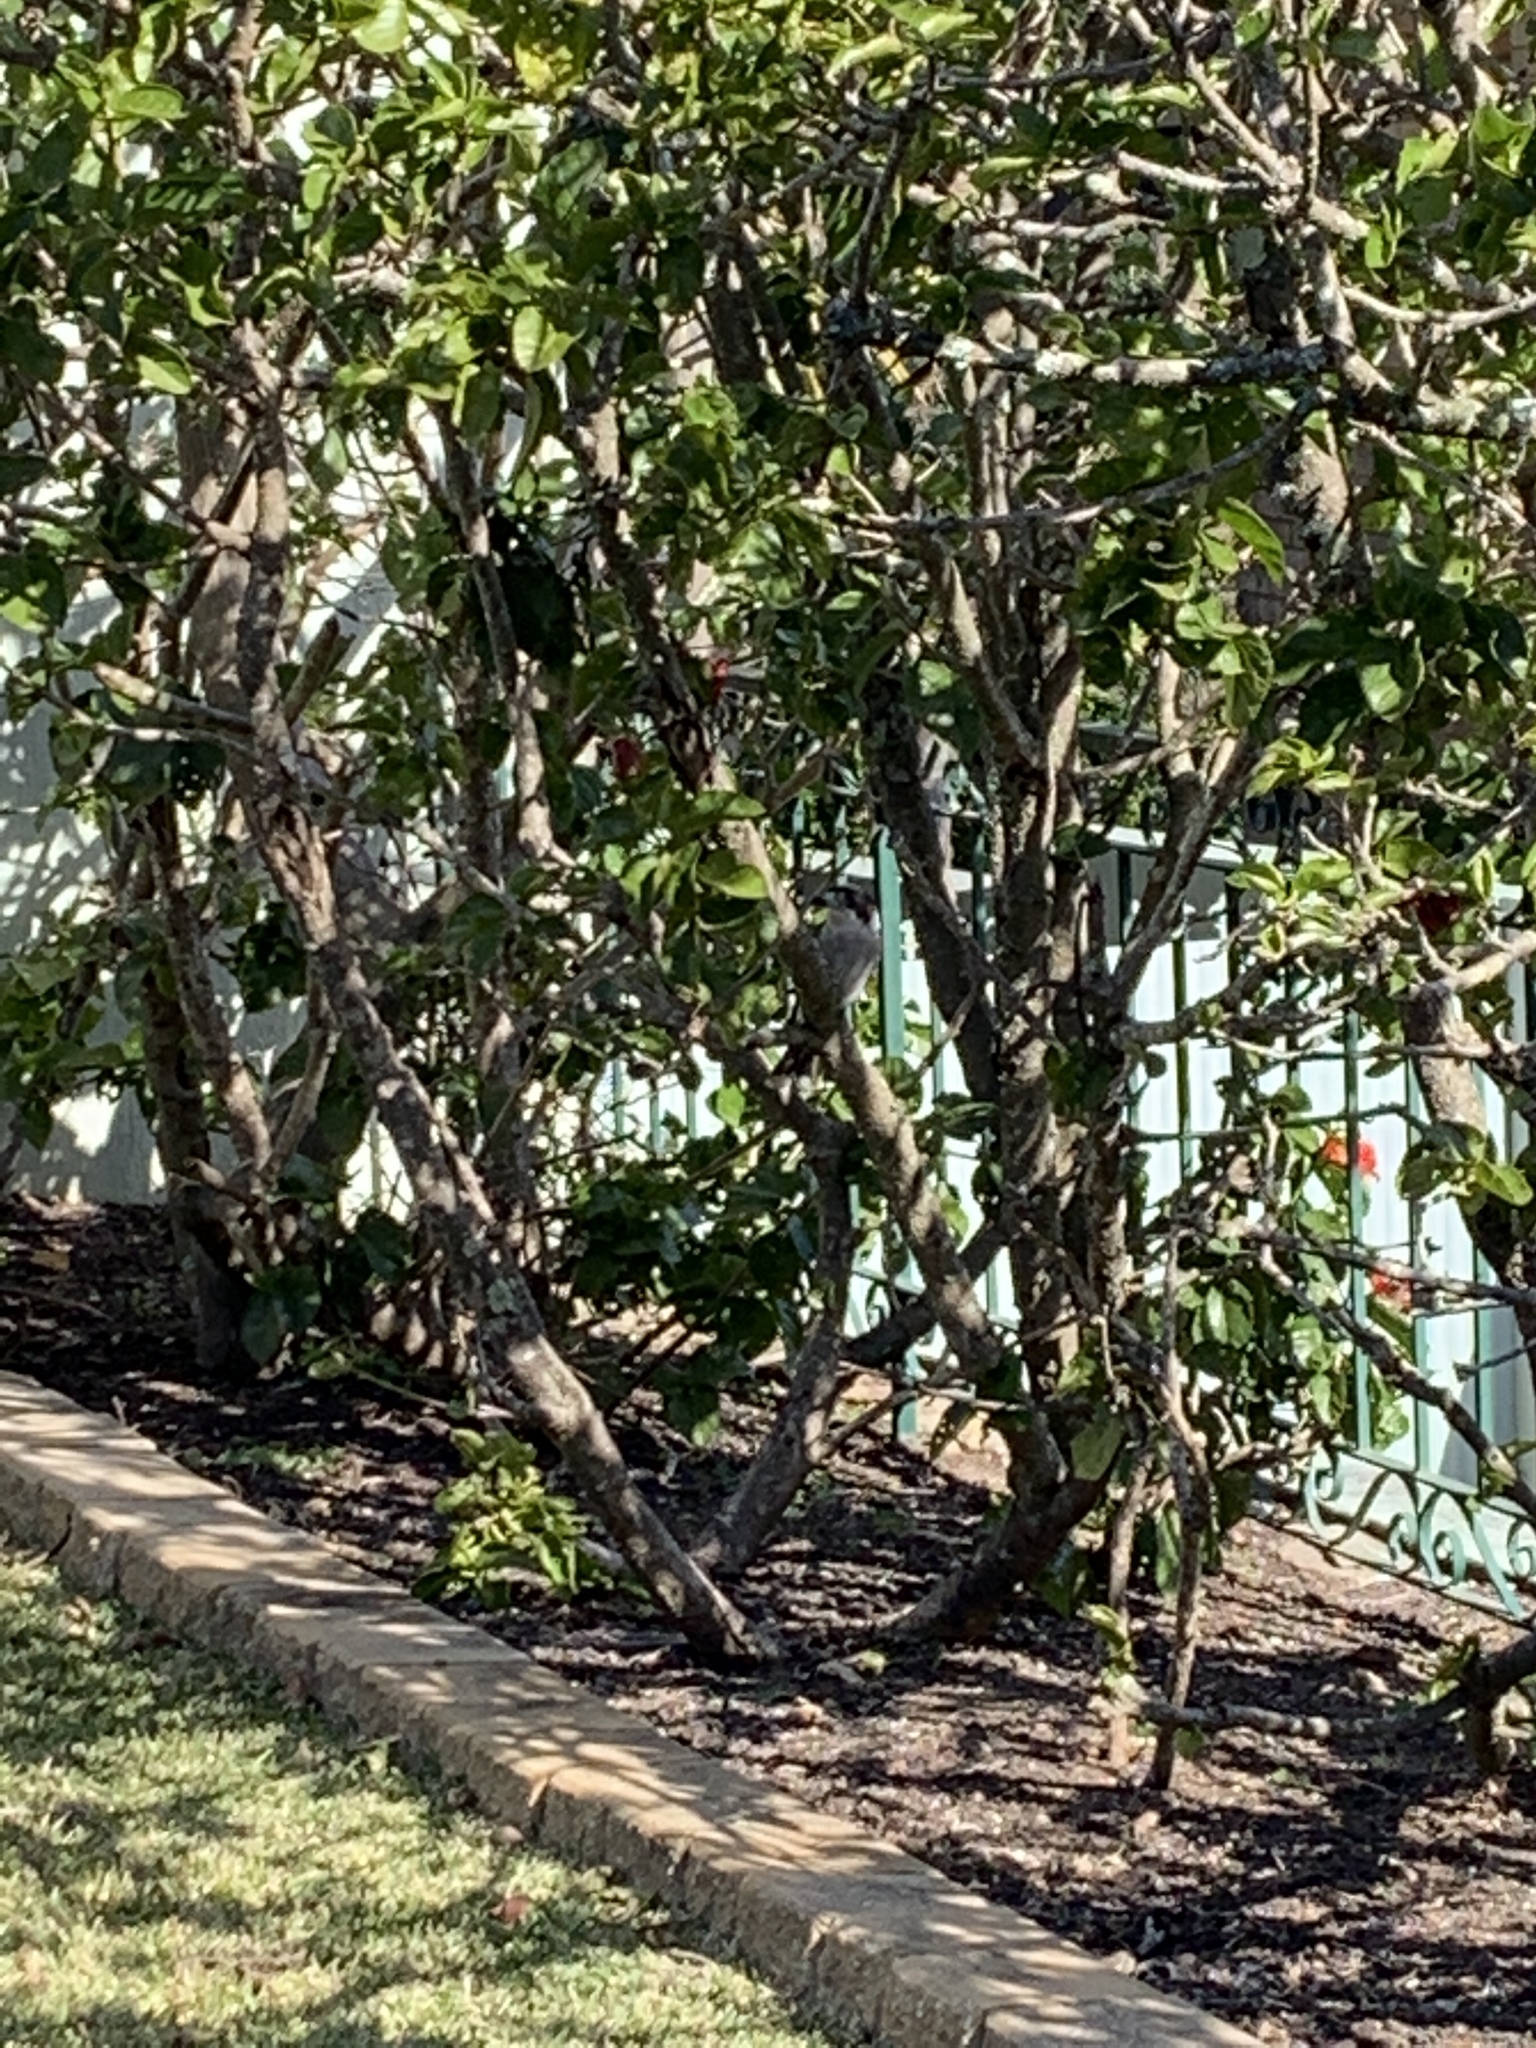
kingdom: Animalia
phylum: Chordata
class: Aves
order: Passeriformes
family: Cracticidae
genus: Cracticus
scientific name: Cracticus torquatus
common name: Grey butcherbird
